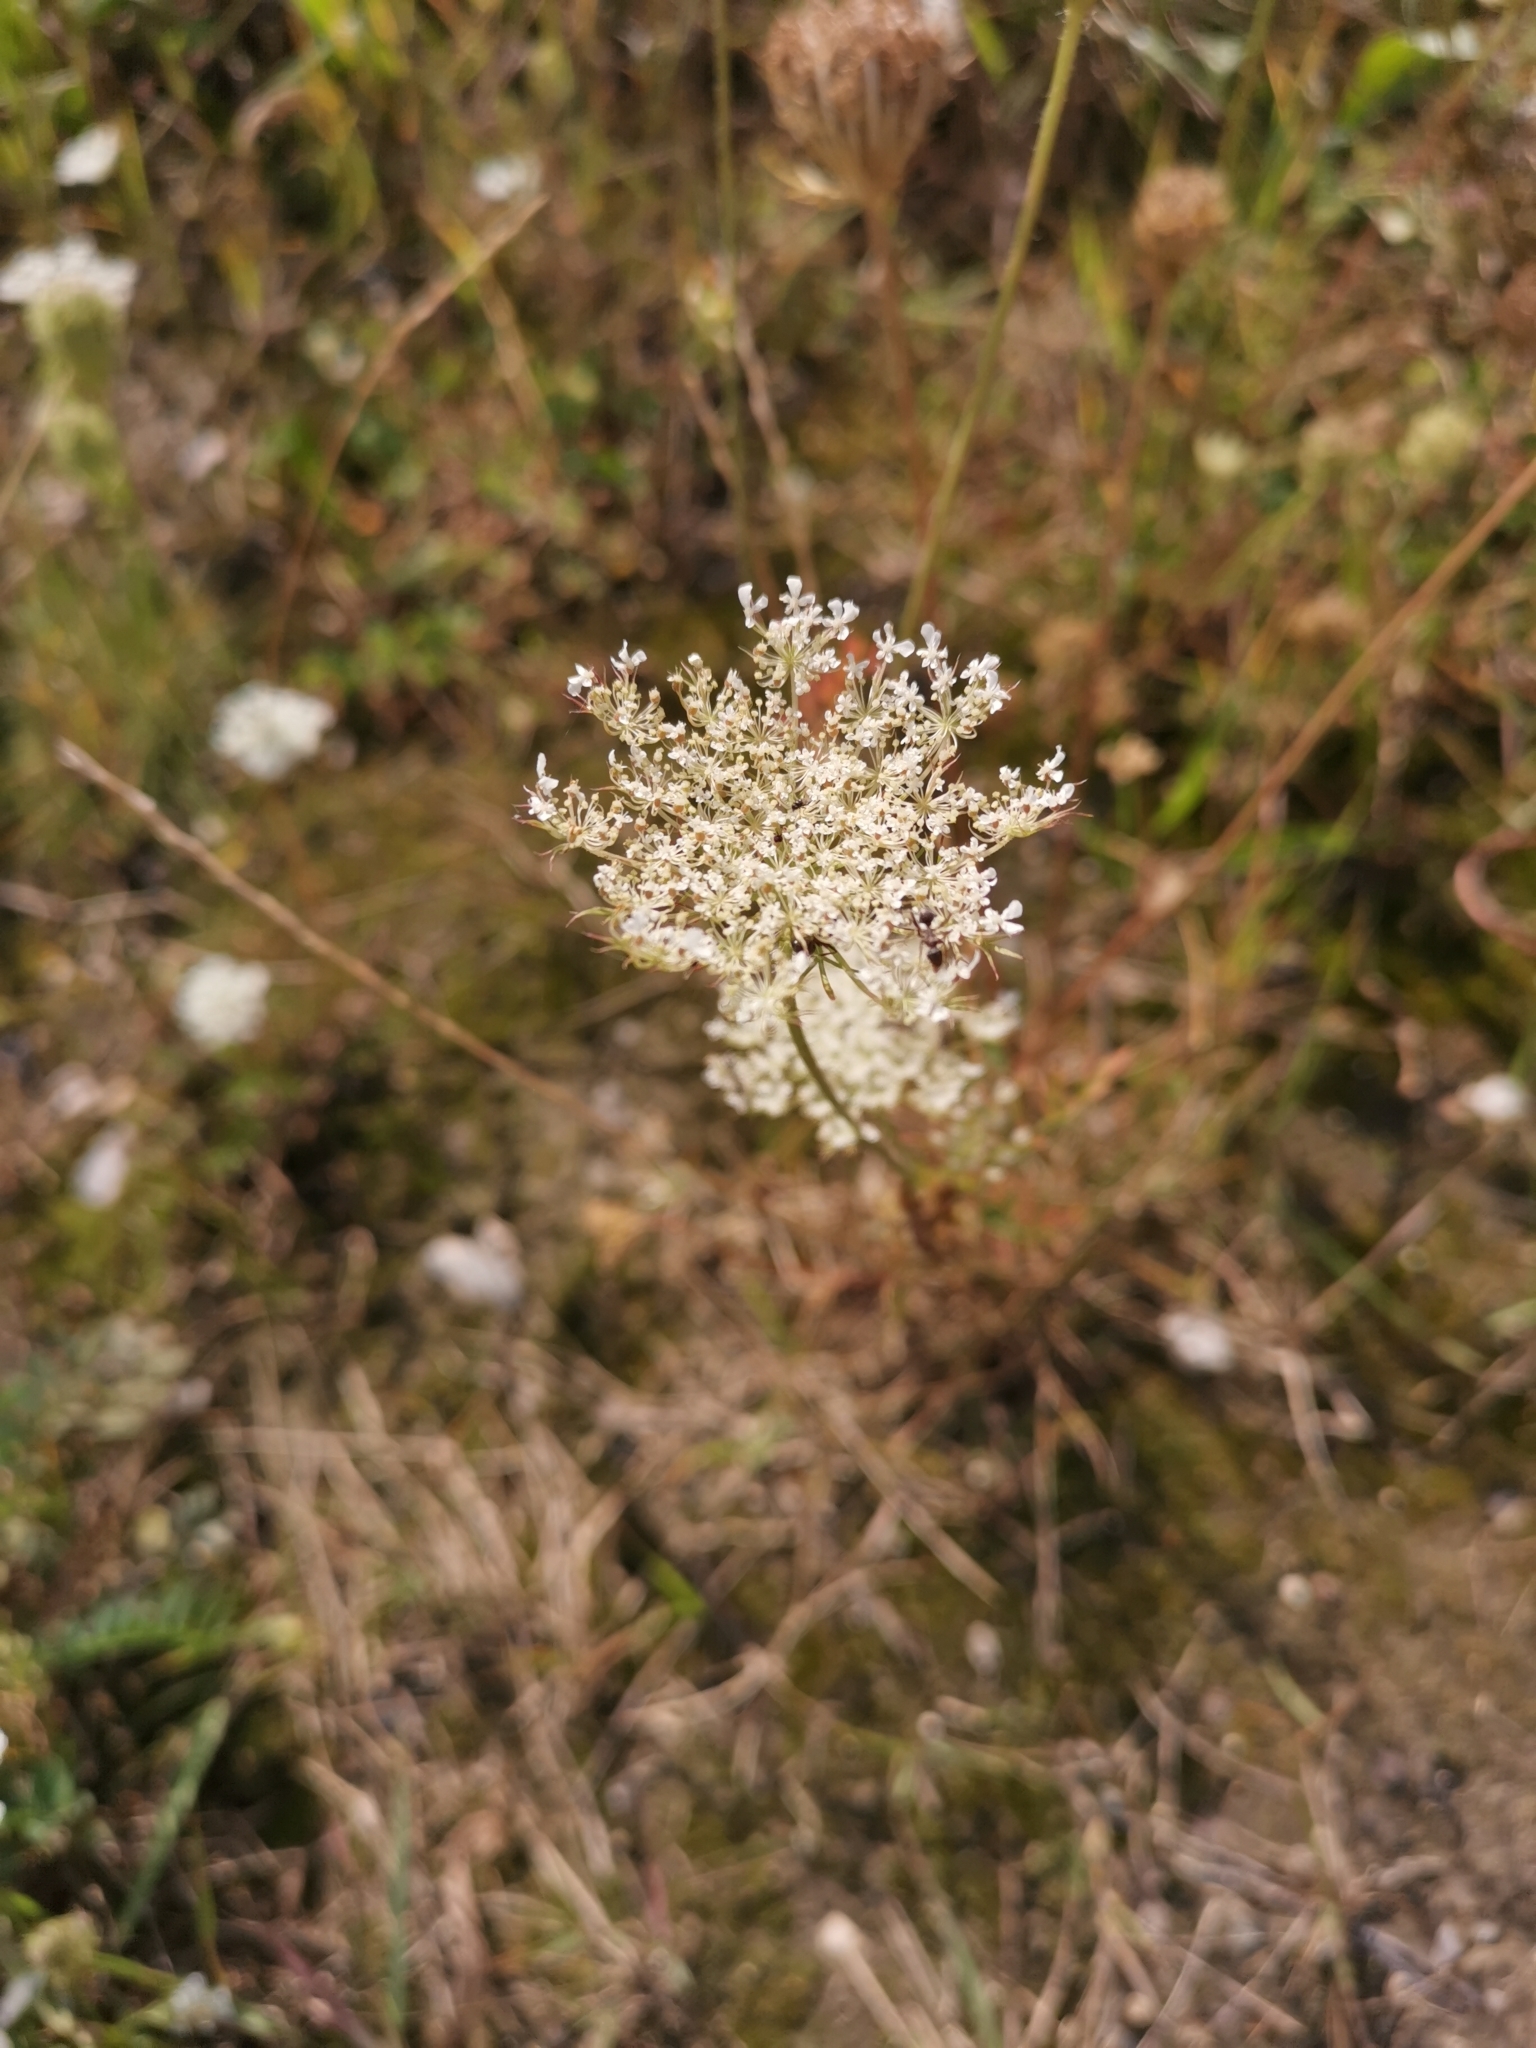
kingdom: Plantae
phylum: Tracheophyta
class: Magnoliopsida
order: Apiales
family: Apiaceae
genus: Daucus
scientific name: Daucus carota
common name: Wild carrot
